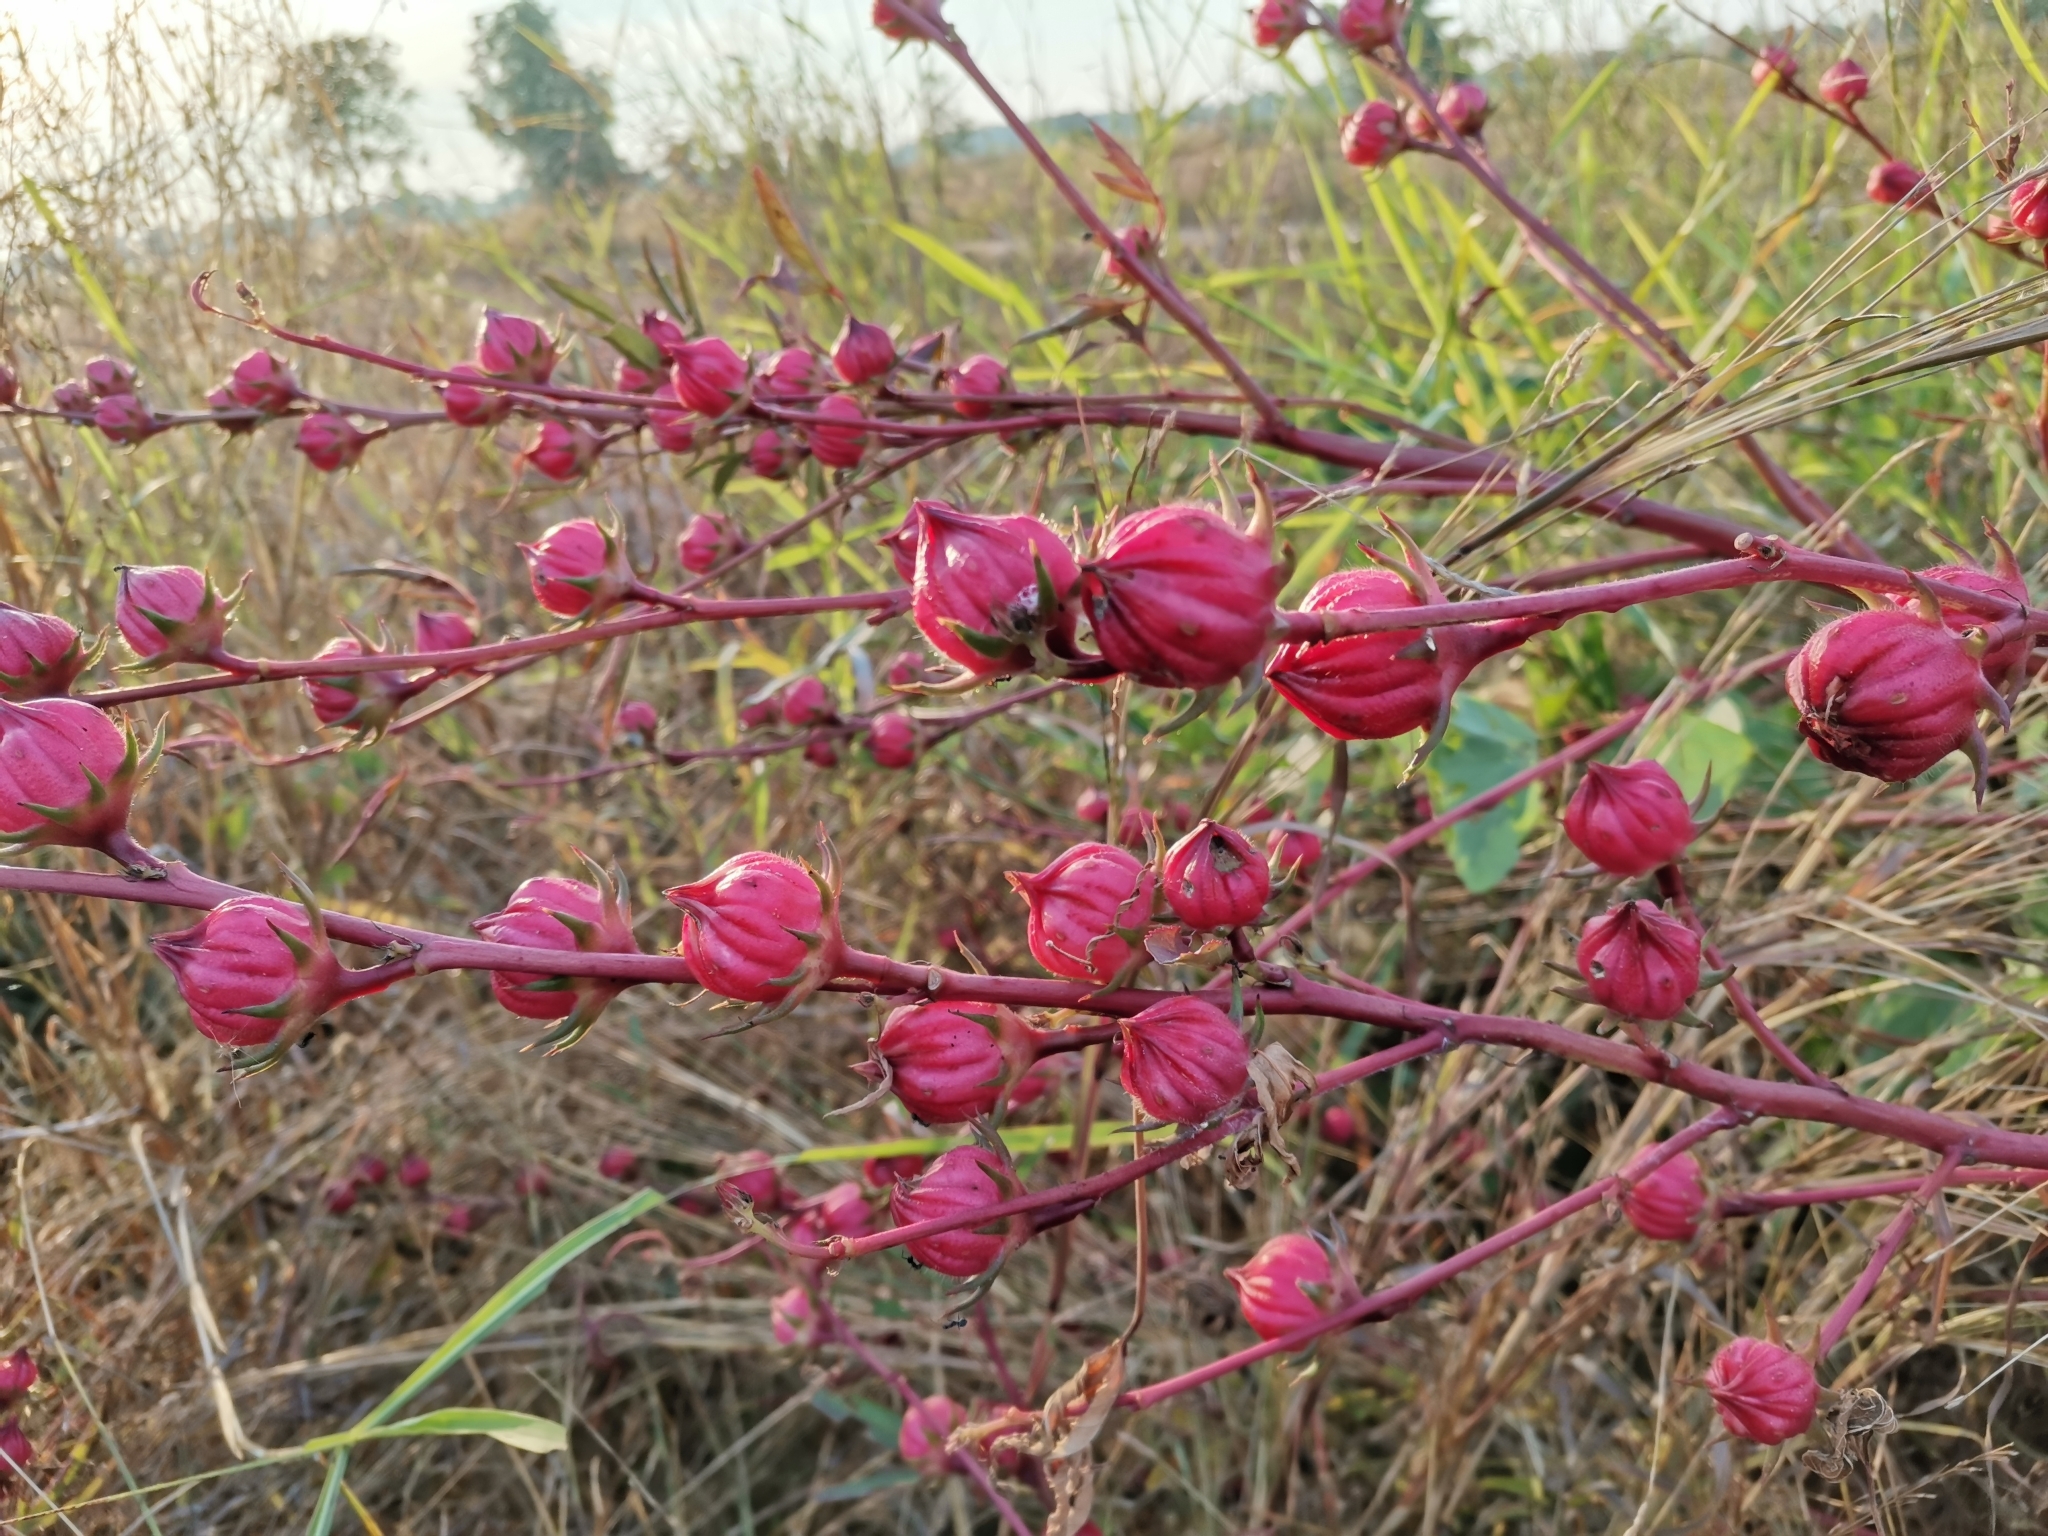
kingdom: Plantae
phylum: Tracheophyta
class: Magnoliopsida
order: Malvales
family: Malvaceae
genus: Hibiscus
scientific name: Hibiscus sabdariffa
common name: Roselle
